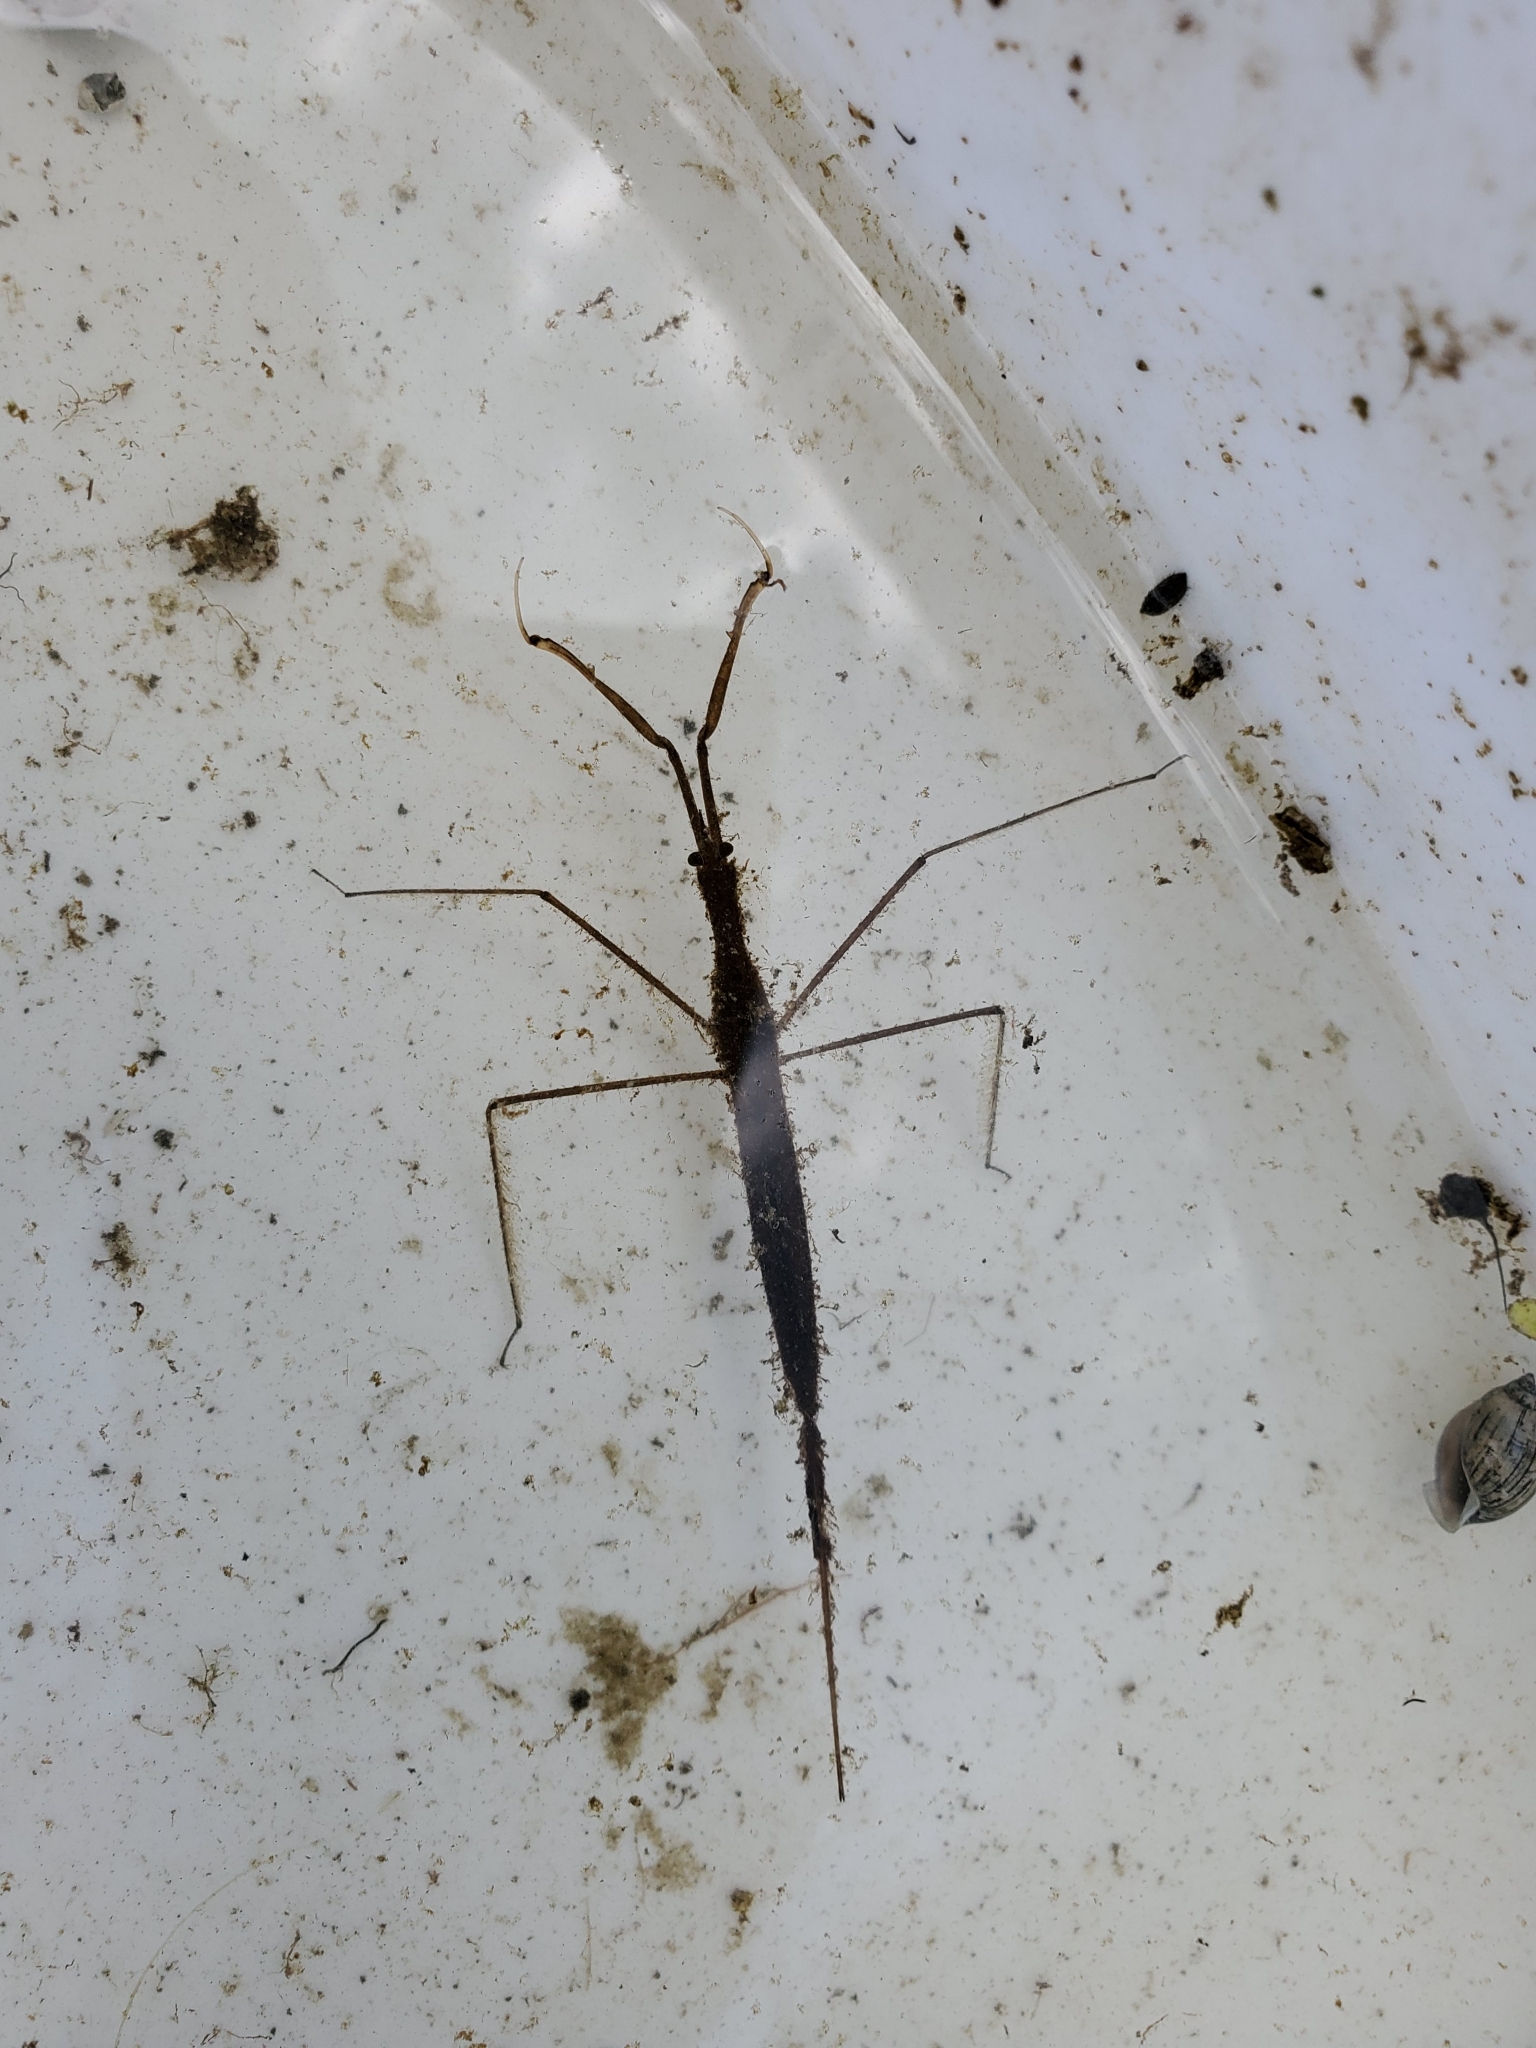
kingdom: Animalia
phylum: Arthropoda
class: Insecta
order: Hemiptera
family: Nepidae
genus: Ranatra
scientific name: Ranatra fusca
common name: Brown waterscorpion
